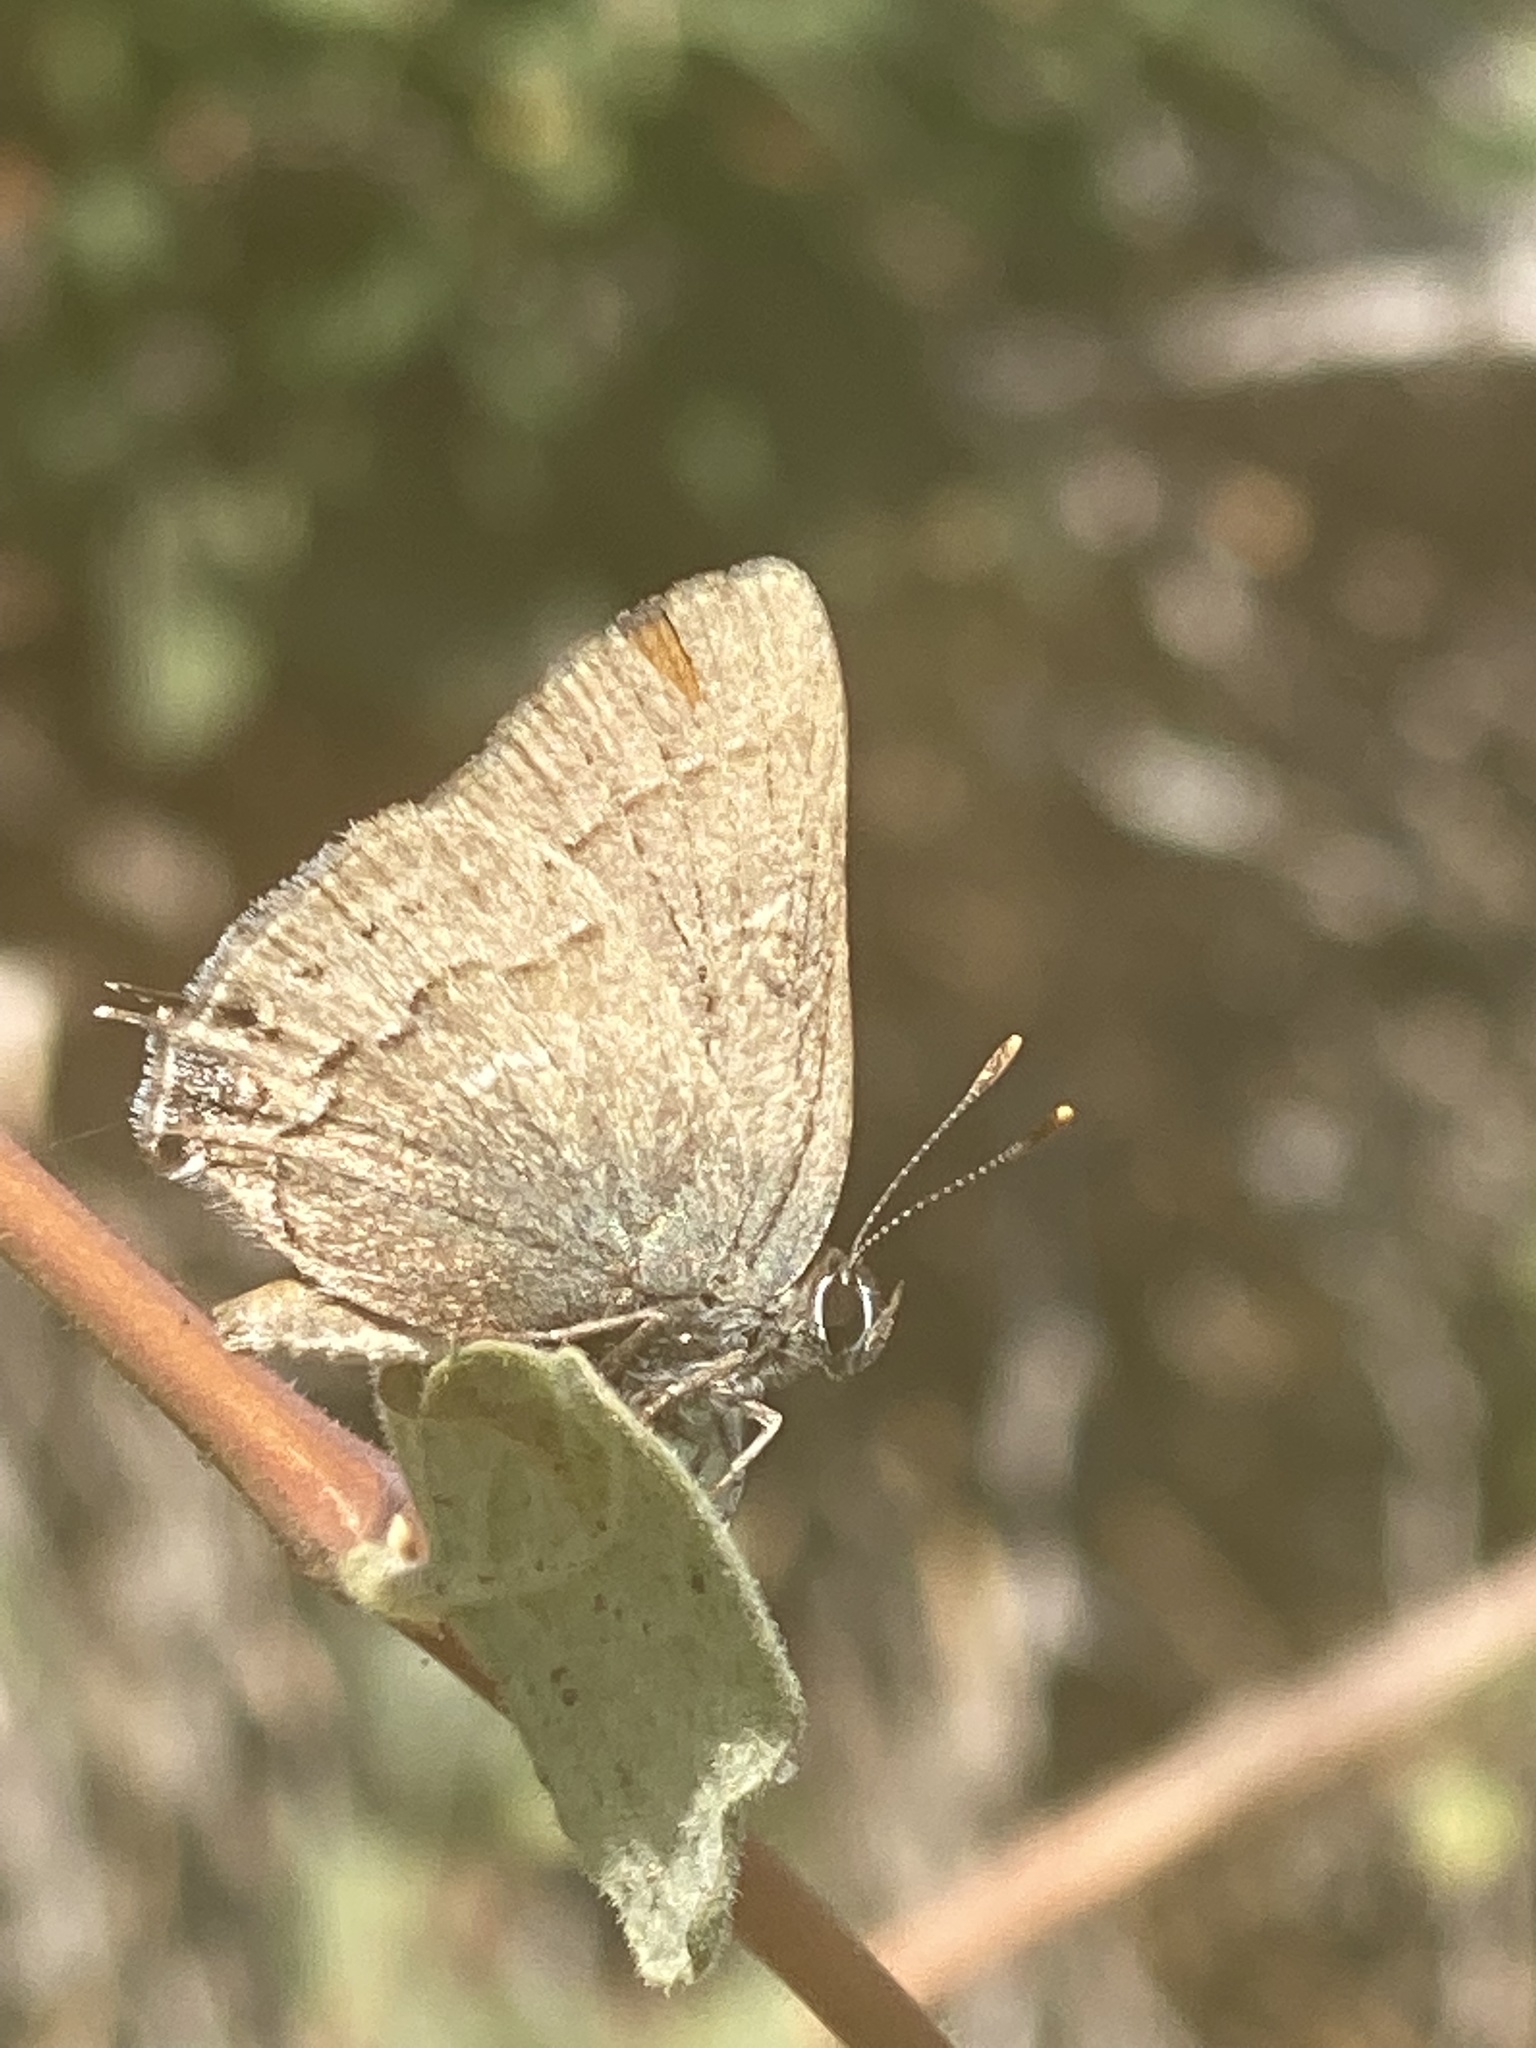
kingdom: Animalia
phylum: Arthropoda
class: Insecta
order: Lepidoptera
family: Lycaenidae
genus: Strymon
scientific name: Strymon saepium
